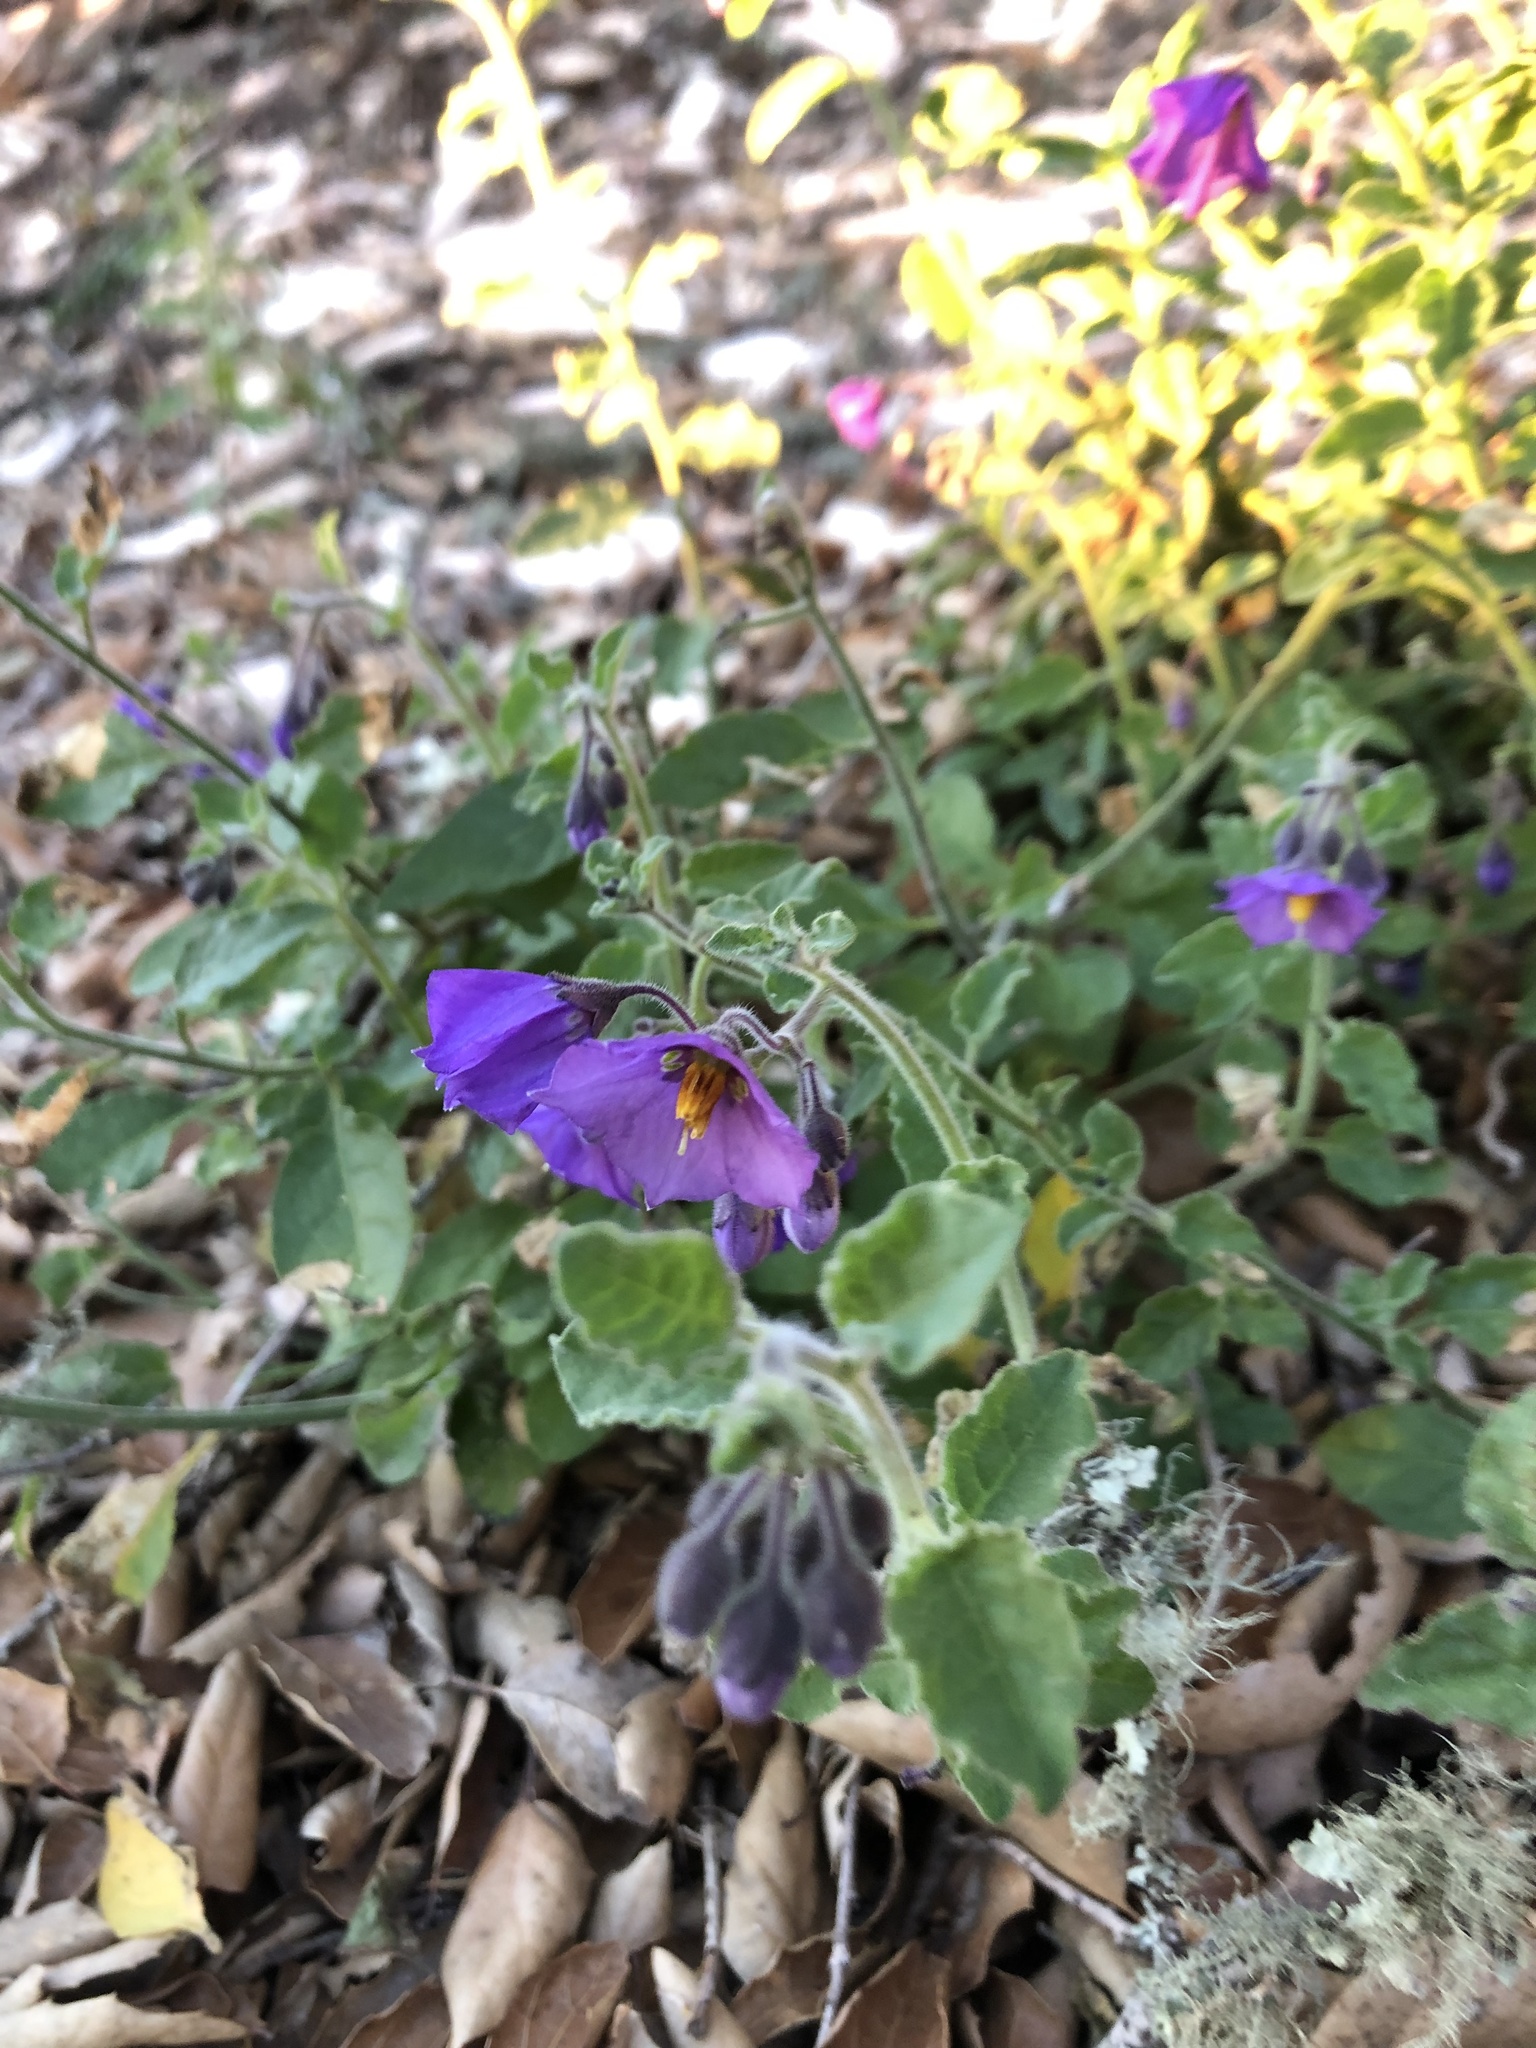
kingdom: Plantae
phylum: Tracheophyta
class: Magnoliopsida
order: Solanales
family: Solanaceae
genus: Solanum
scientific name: Solanum umbelliferum
